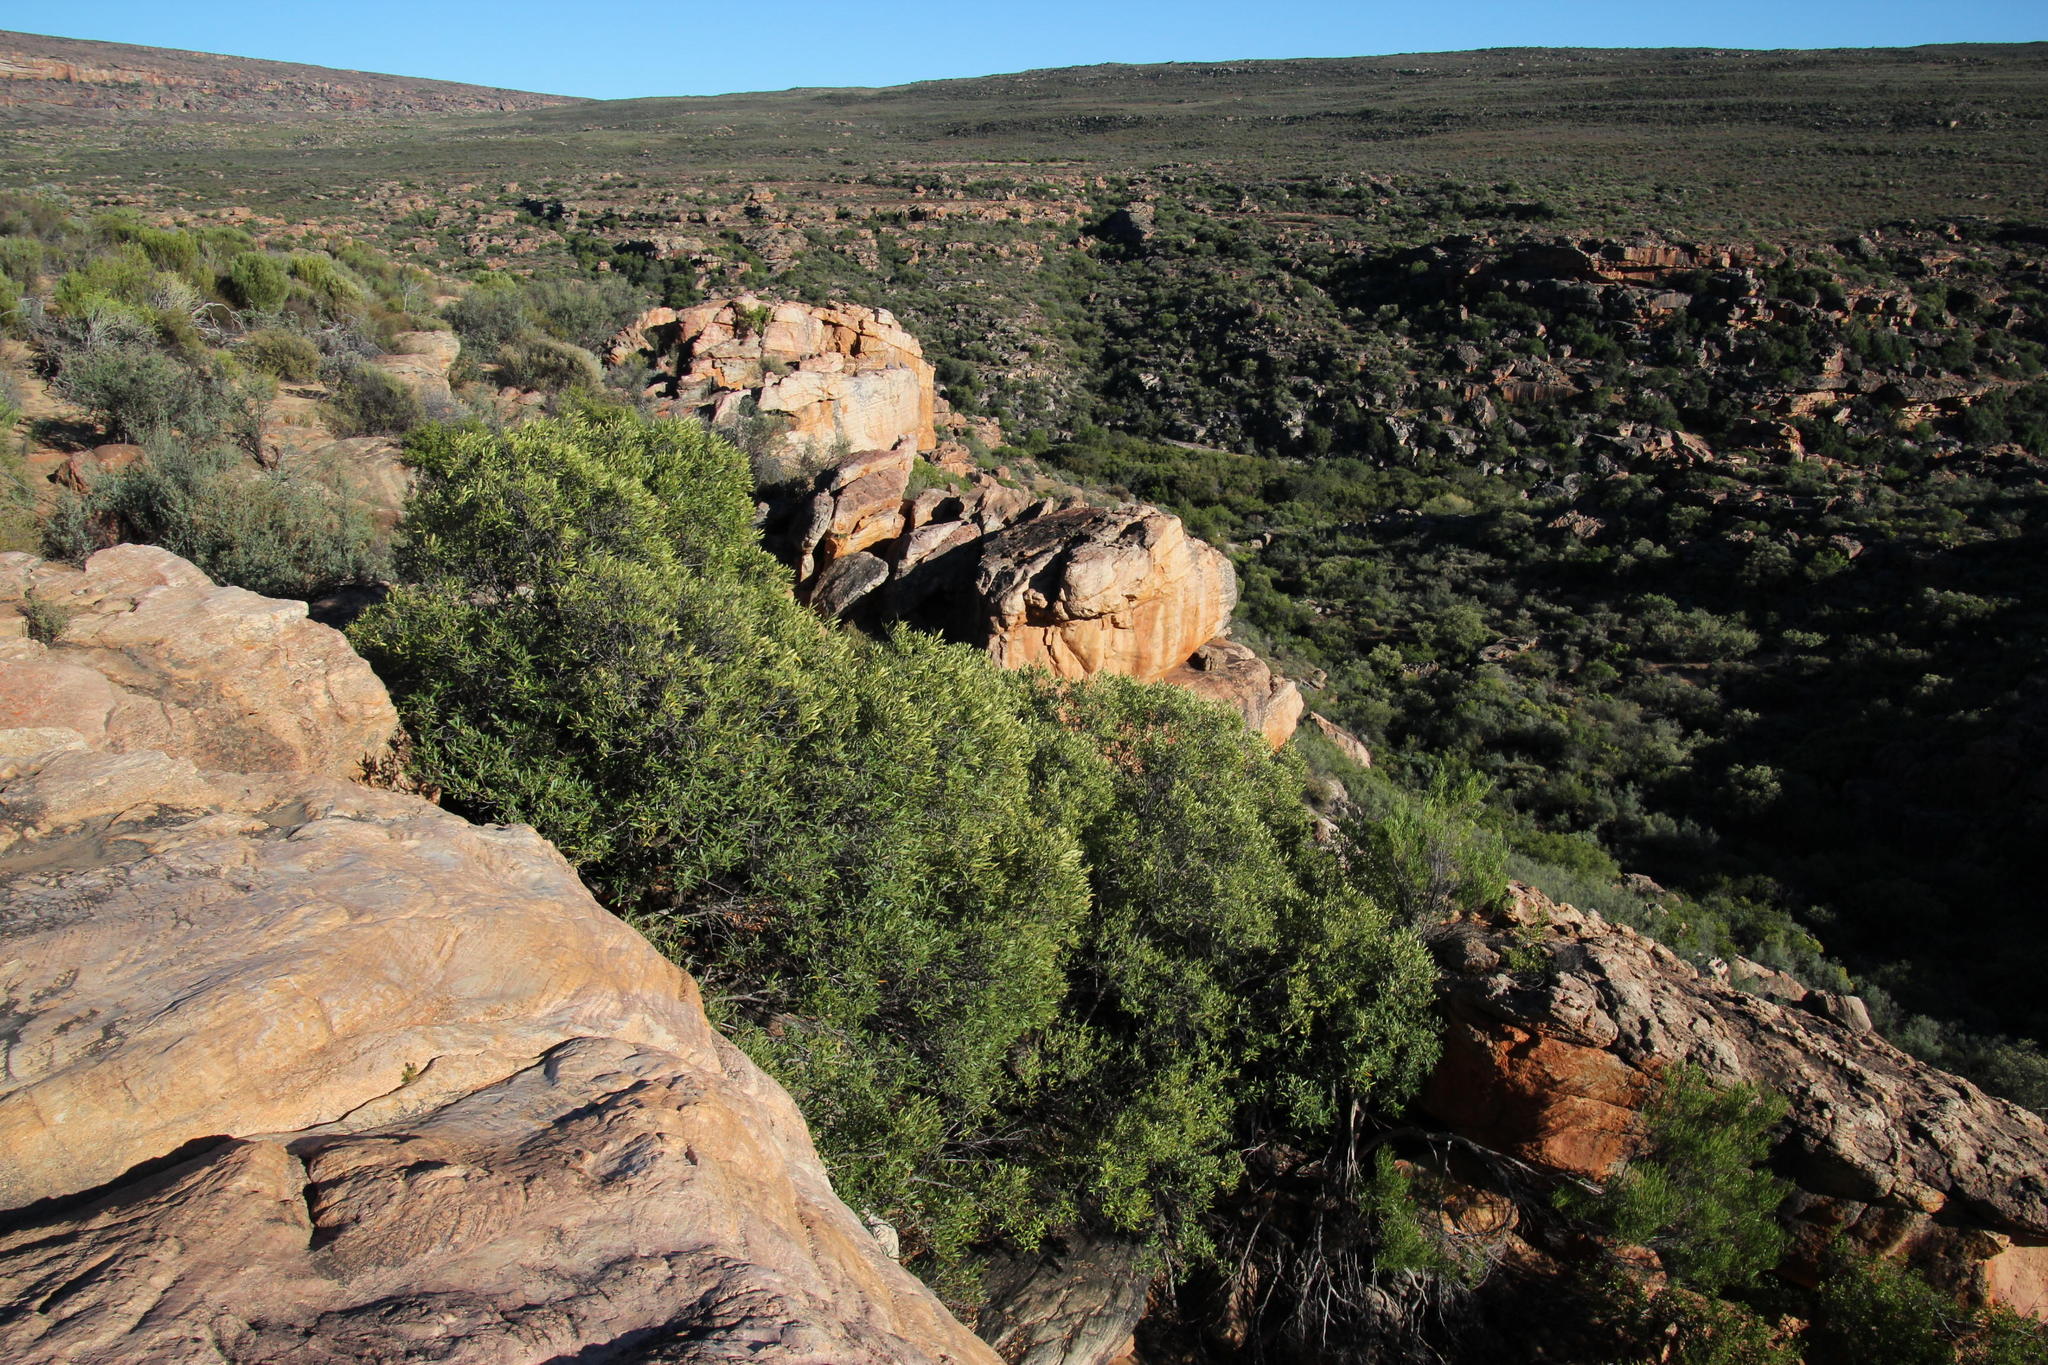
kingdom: Plantae
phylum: Tracheophyta
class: Magnoliopsida
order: Lamiales
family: Oleaceae
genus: Olea
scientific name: Olea europaea
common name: Olive
